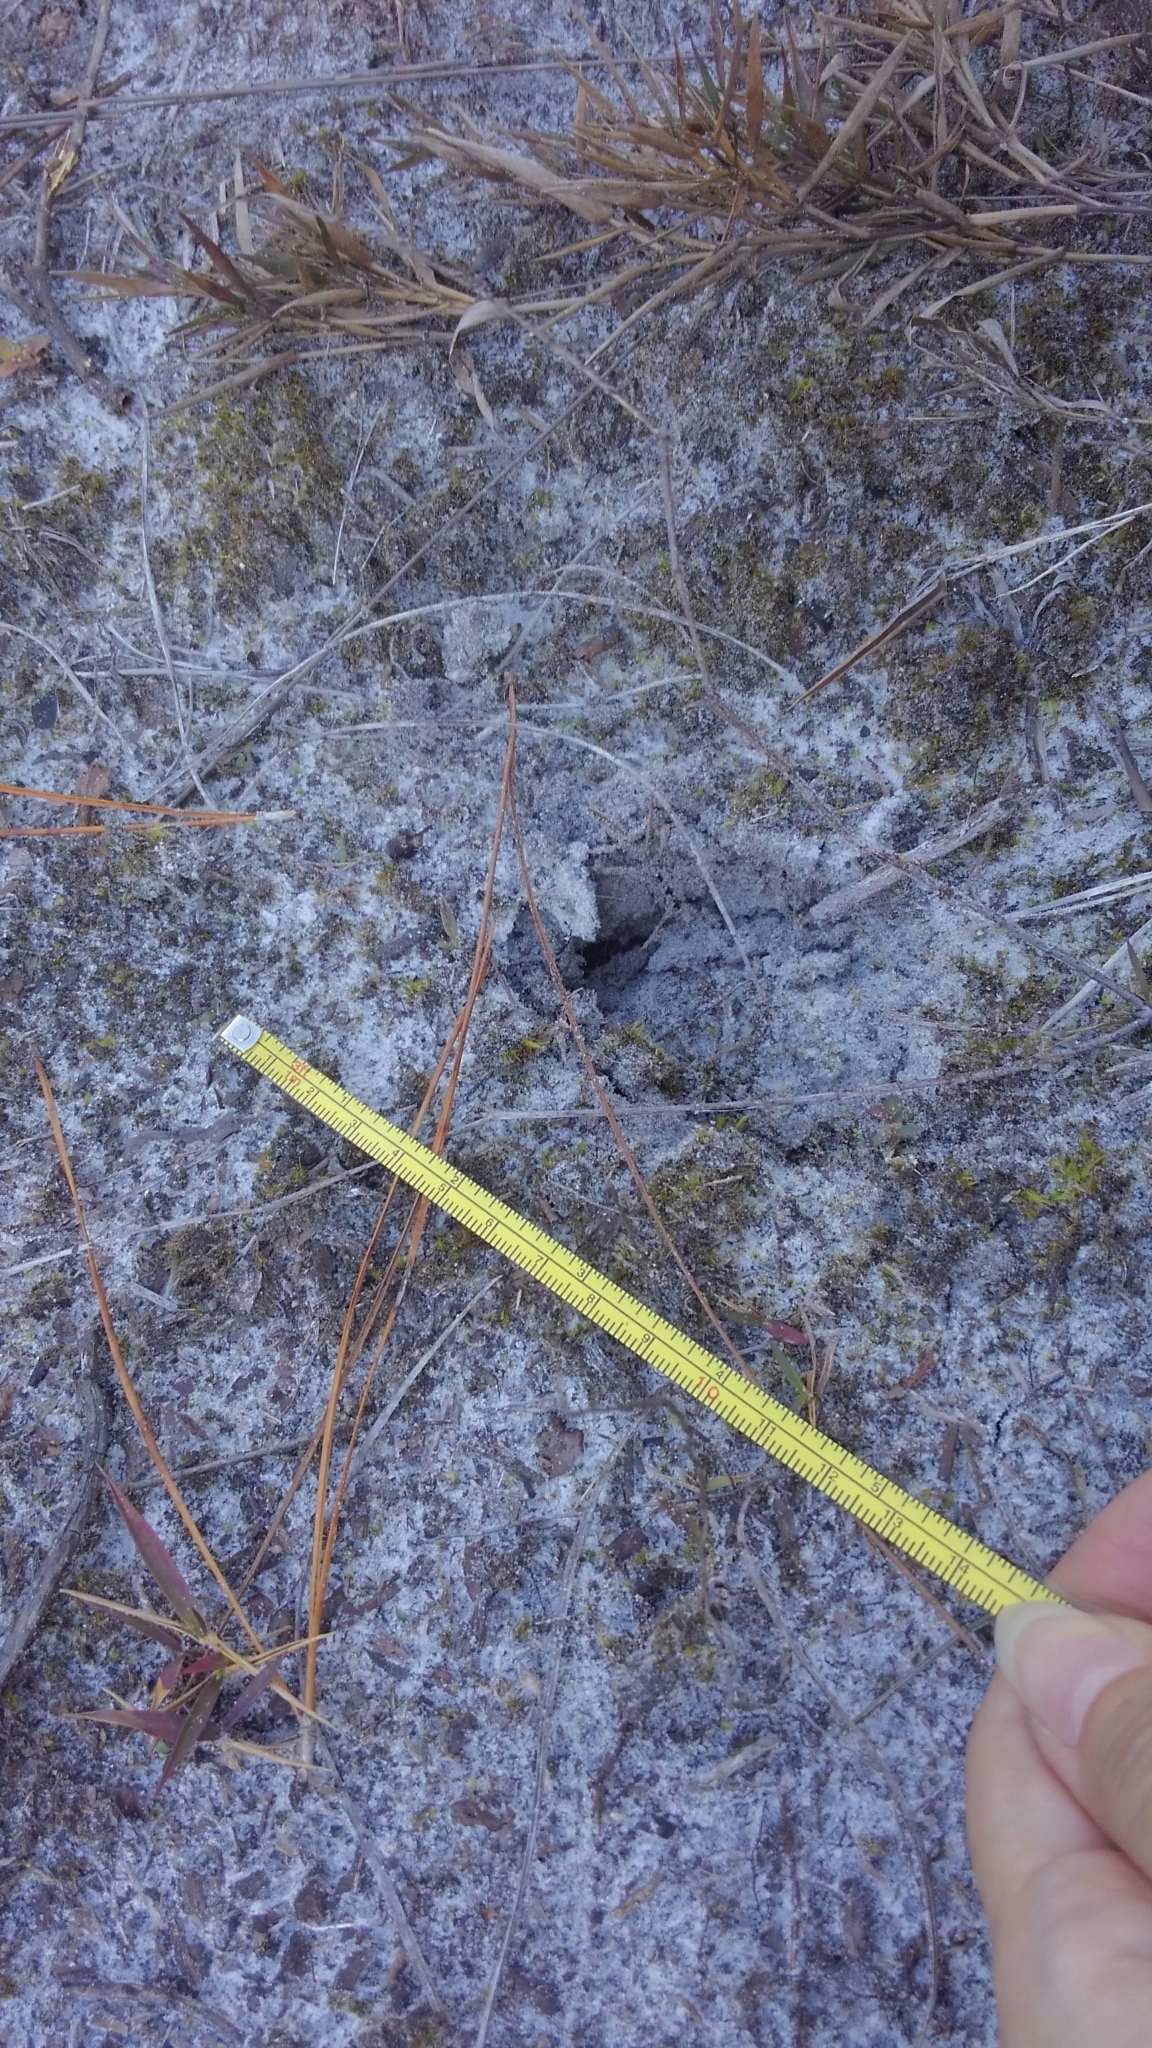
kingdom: Animalia
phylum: Chordata
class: Mammalia
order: Artiodactyla
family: Cervidae
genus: Odocoileus
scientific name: Odocoileus virginianus
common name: White-tailed deer
